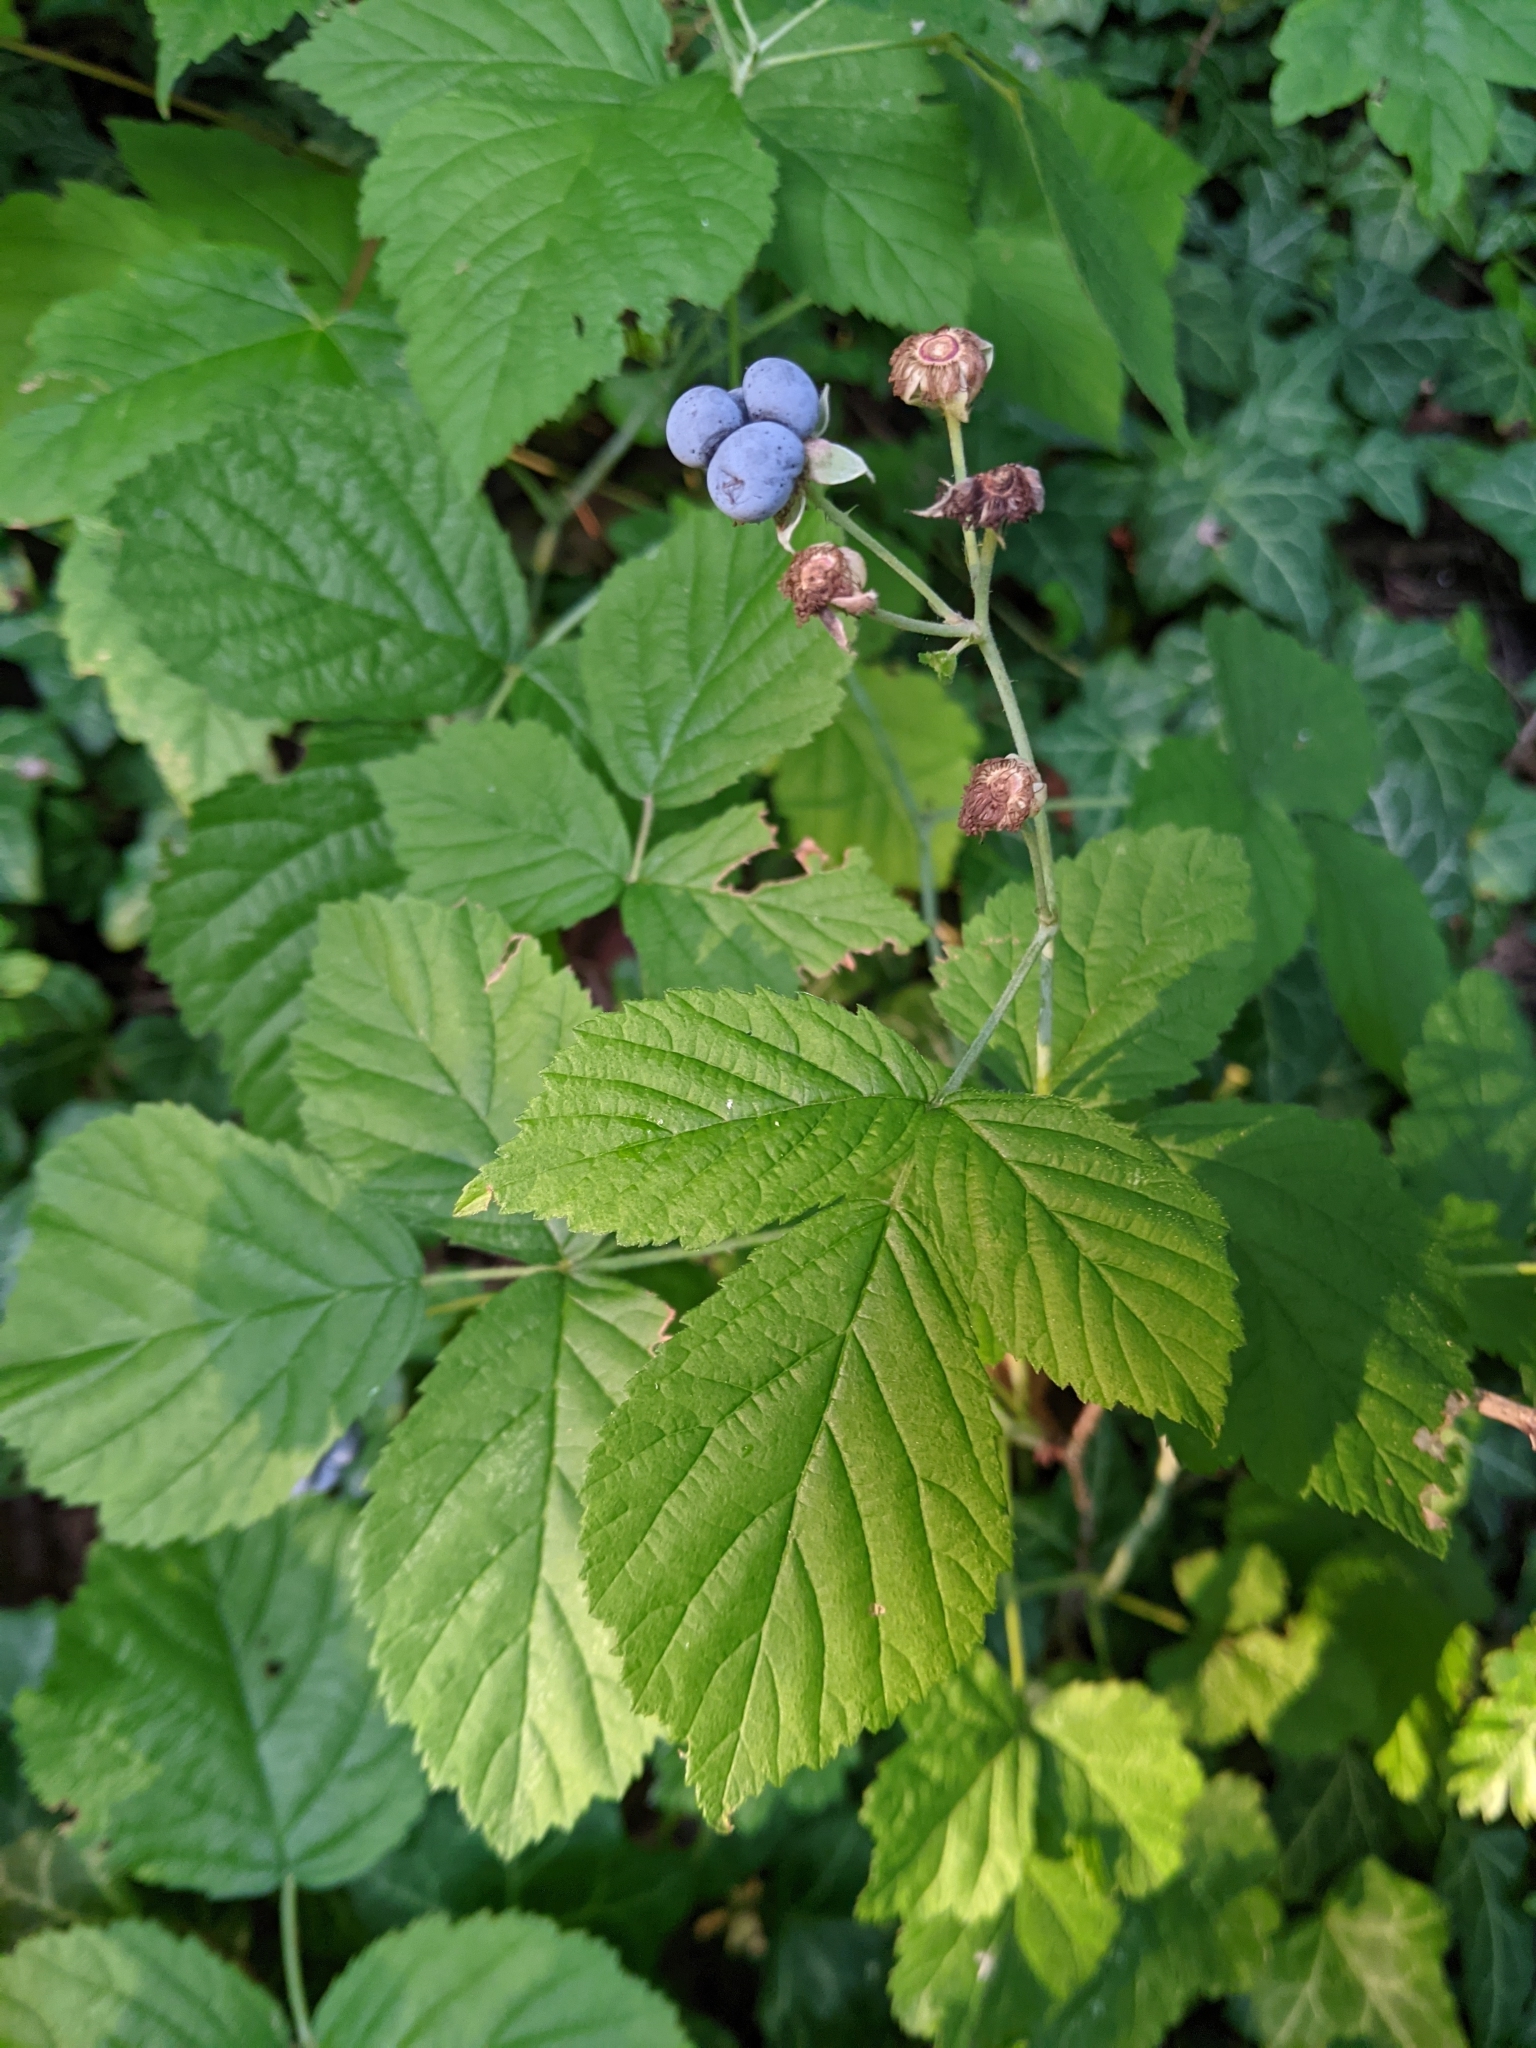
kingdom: Plantae
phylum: Tracheophyta
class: Magnoliopsida
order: Rosales
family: Rosaceae
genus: Rubus
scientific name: Rubus caesius
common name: Dewberry
